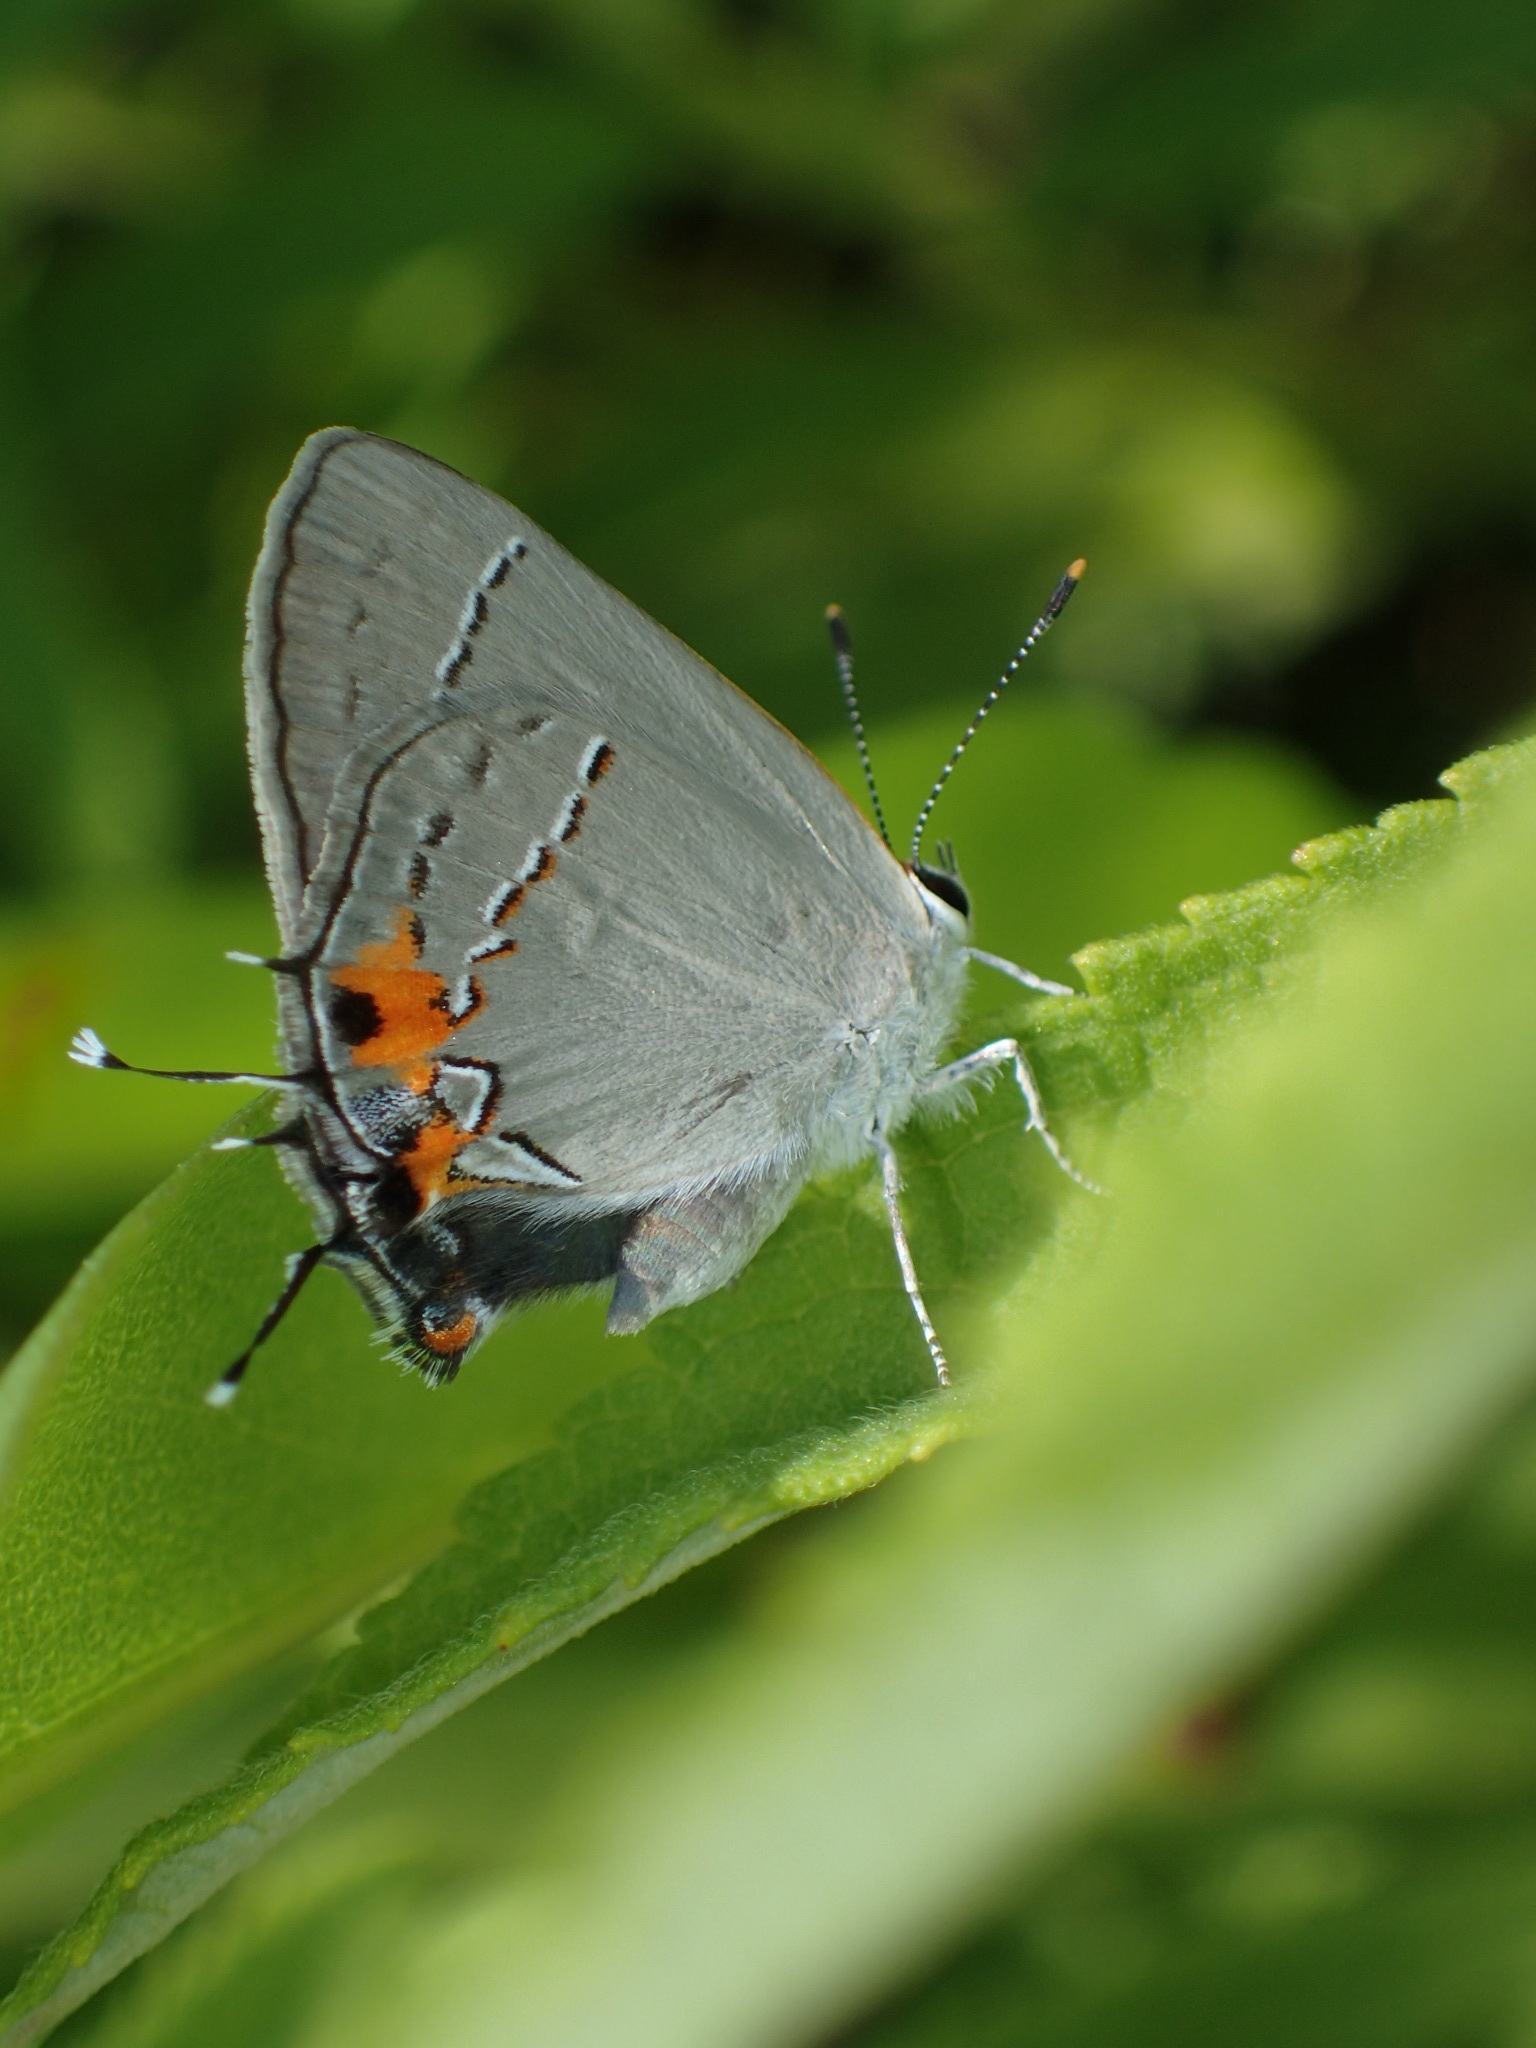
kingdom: Animalia
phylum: Arthropoda
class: Insecta
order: Lepidoptera
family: Lycaenidae
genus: Strymon
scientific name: Strymon melinus
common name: Gray hairstreak
